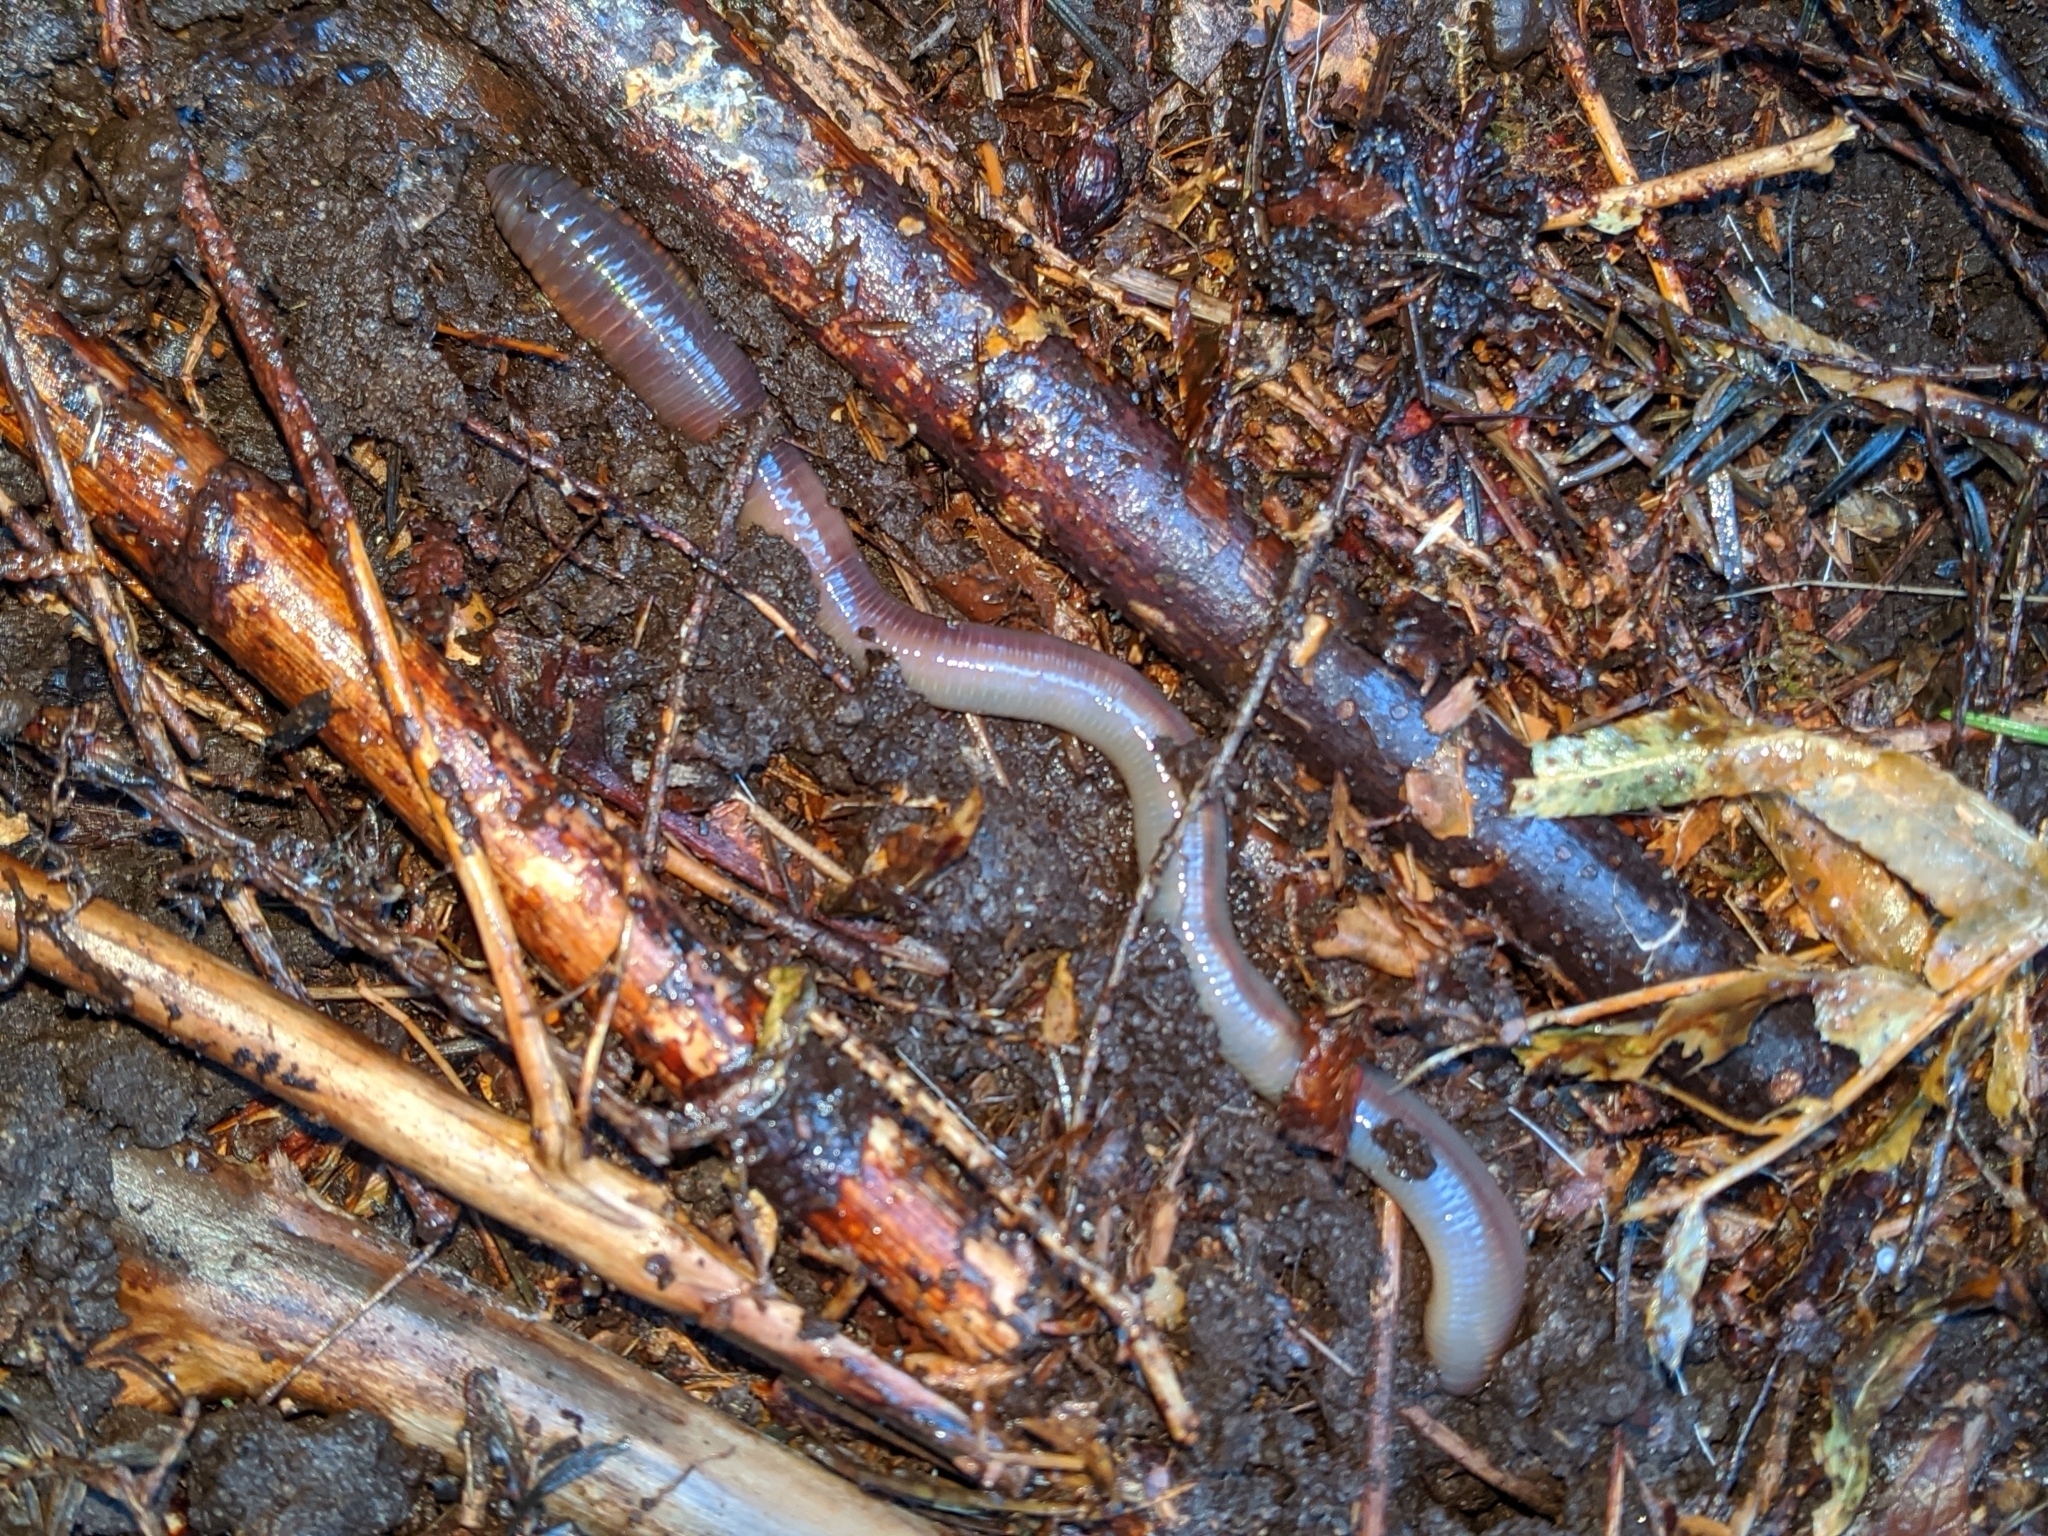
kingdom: Animalia
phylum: Annelida
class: Clitellata
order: Crassiclitellata
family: Lumbricidae
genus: Lumbricus
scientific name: Lumbricus terrestris
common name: Common earthworm
